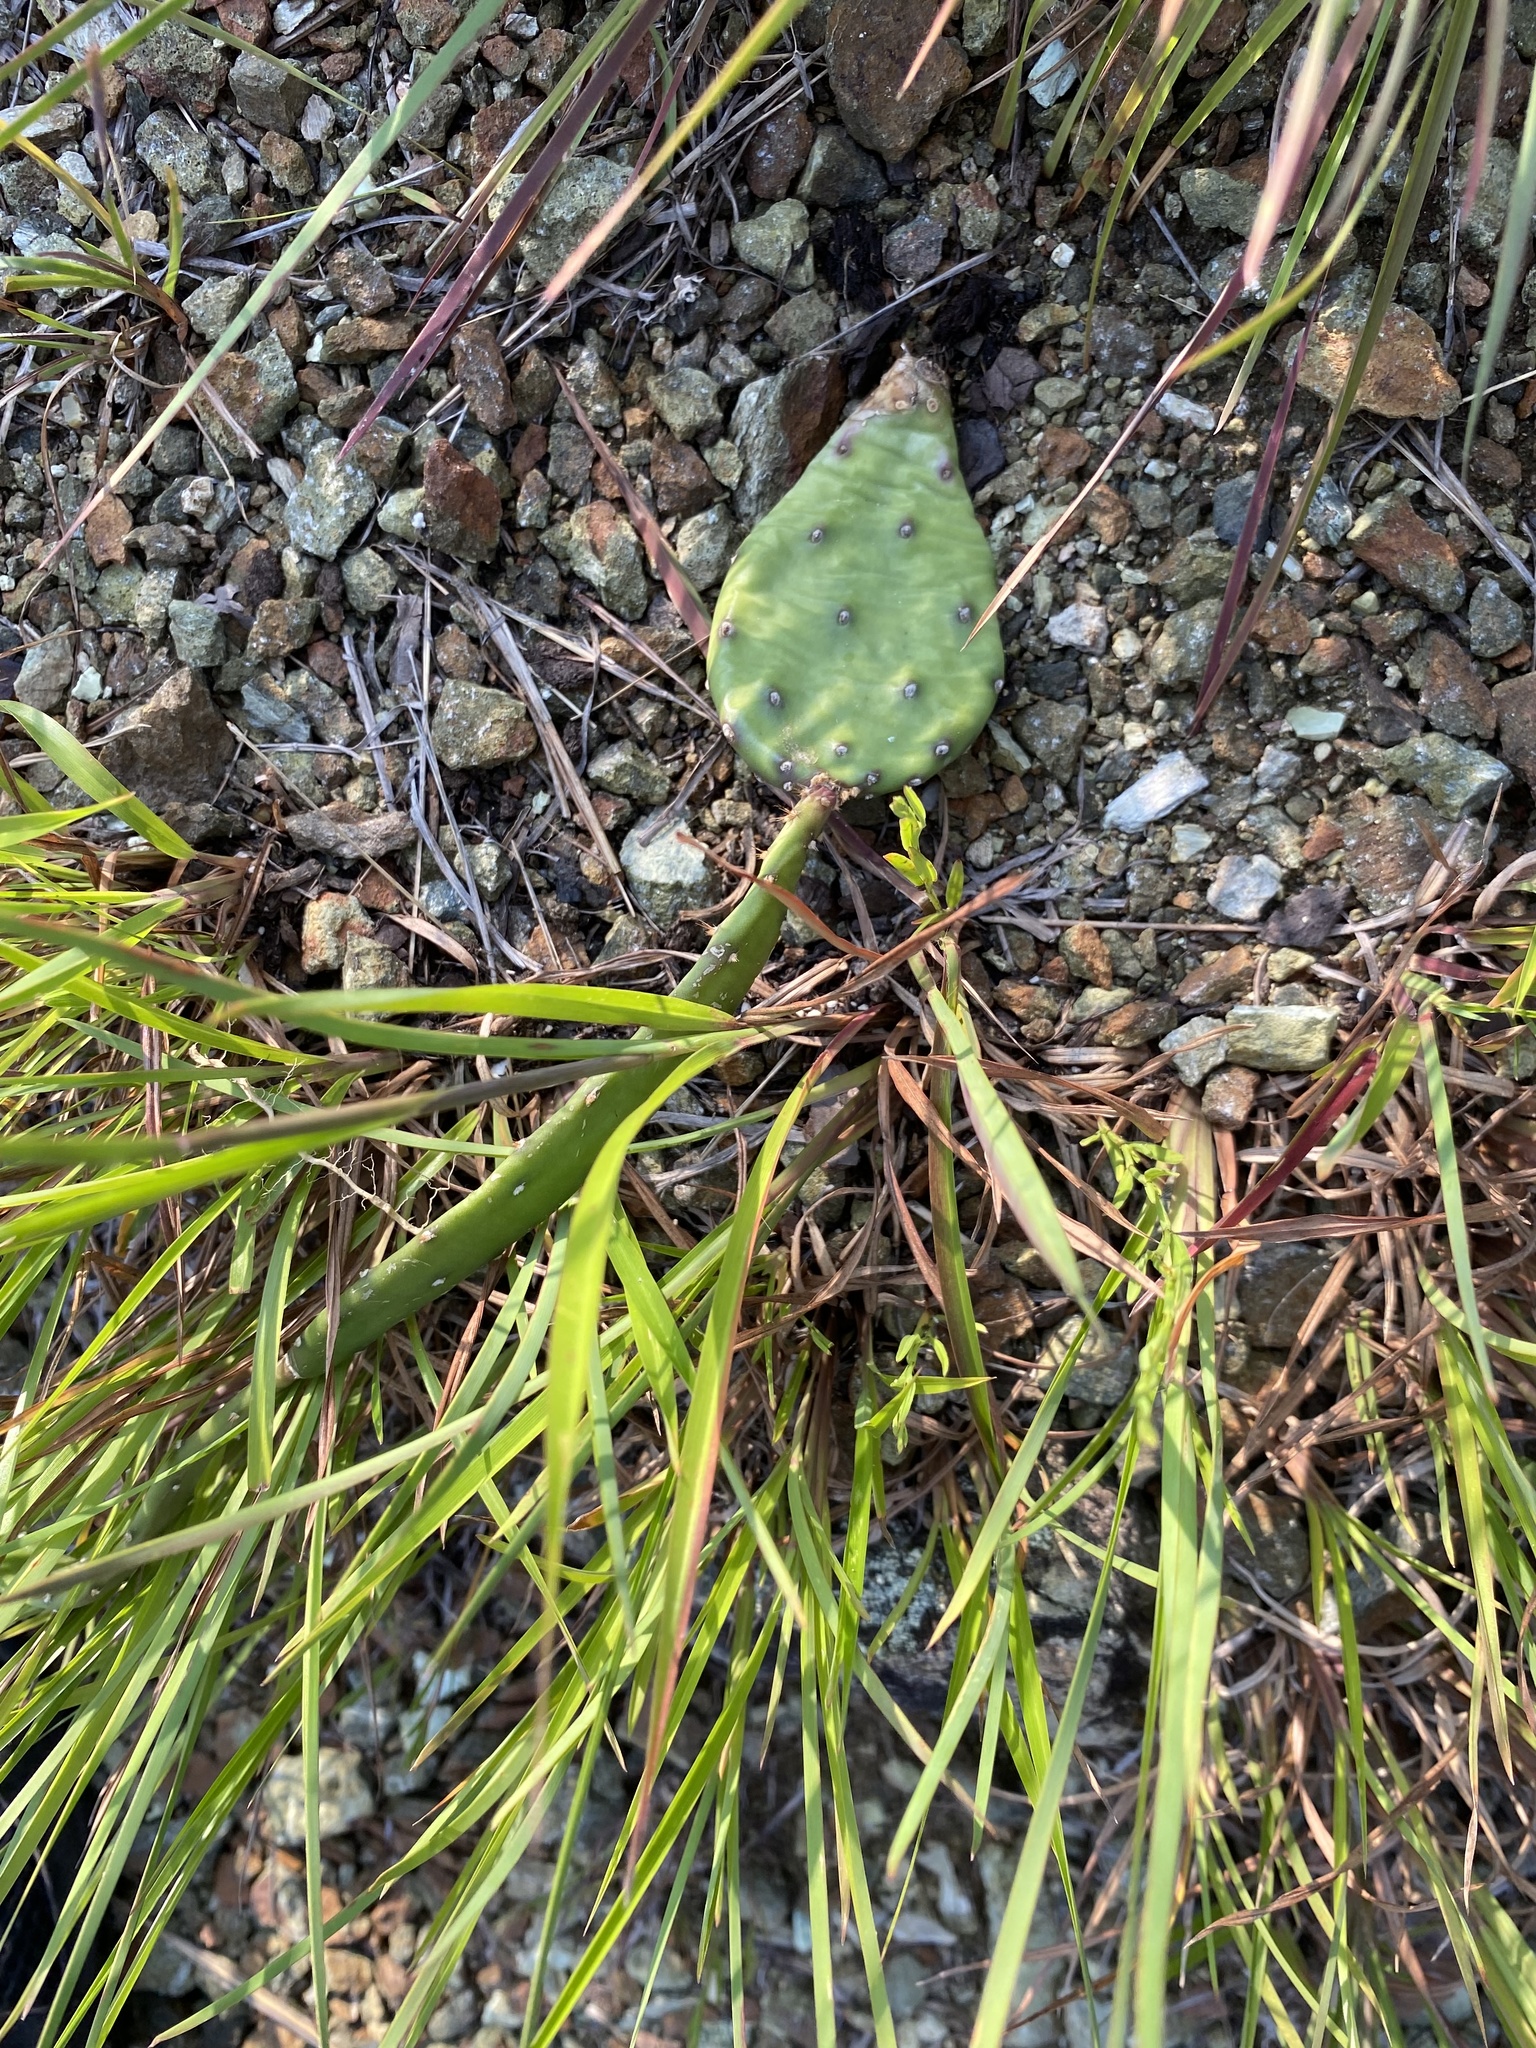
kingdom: Plantae
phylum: Tracheophyta
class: Magnoliopsida
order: Caryophyllales
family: Cactaceae
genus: Opuntia
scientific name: Opuntia humifusa
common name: Eastern prickly-pear
